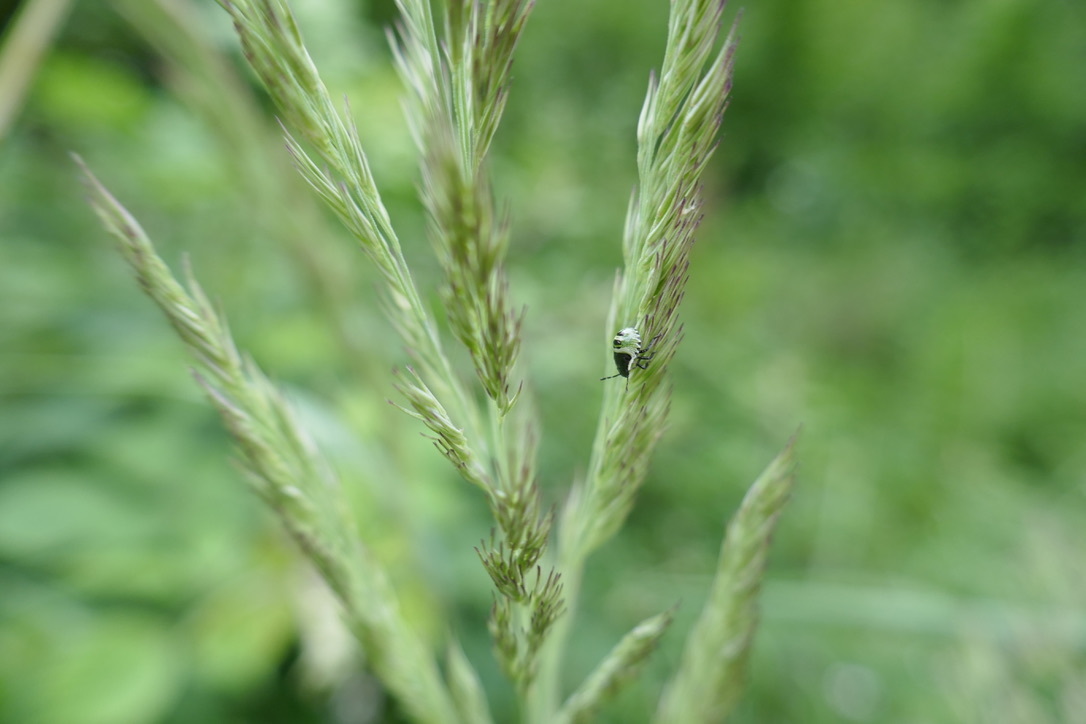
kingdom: Animalia
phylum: Arthropoda
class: Insecta
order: Hemiptera
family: Pentatomidae
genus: Palomena
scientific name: Palomena prasina
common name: Green shieldbug
